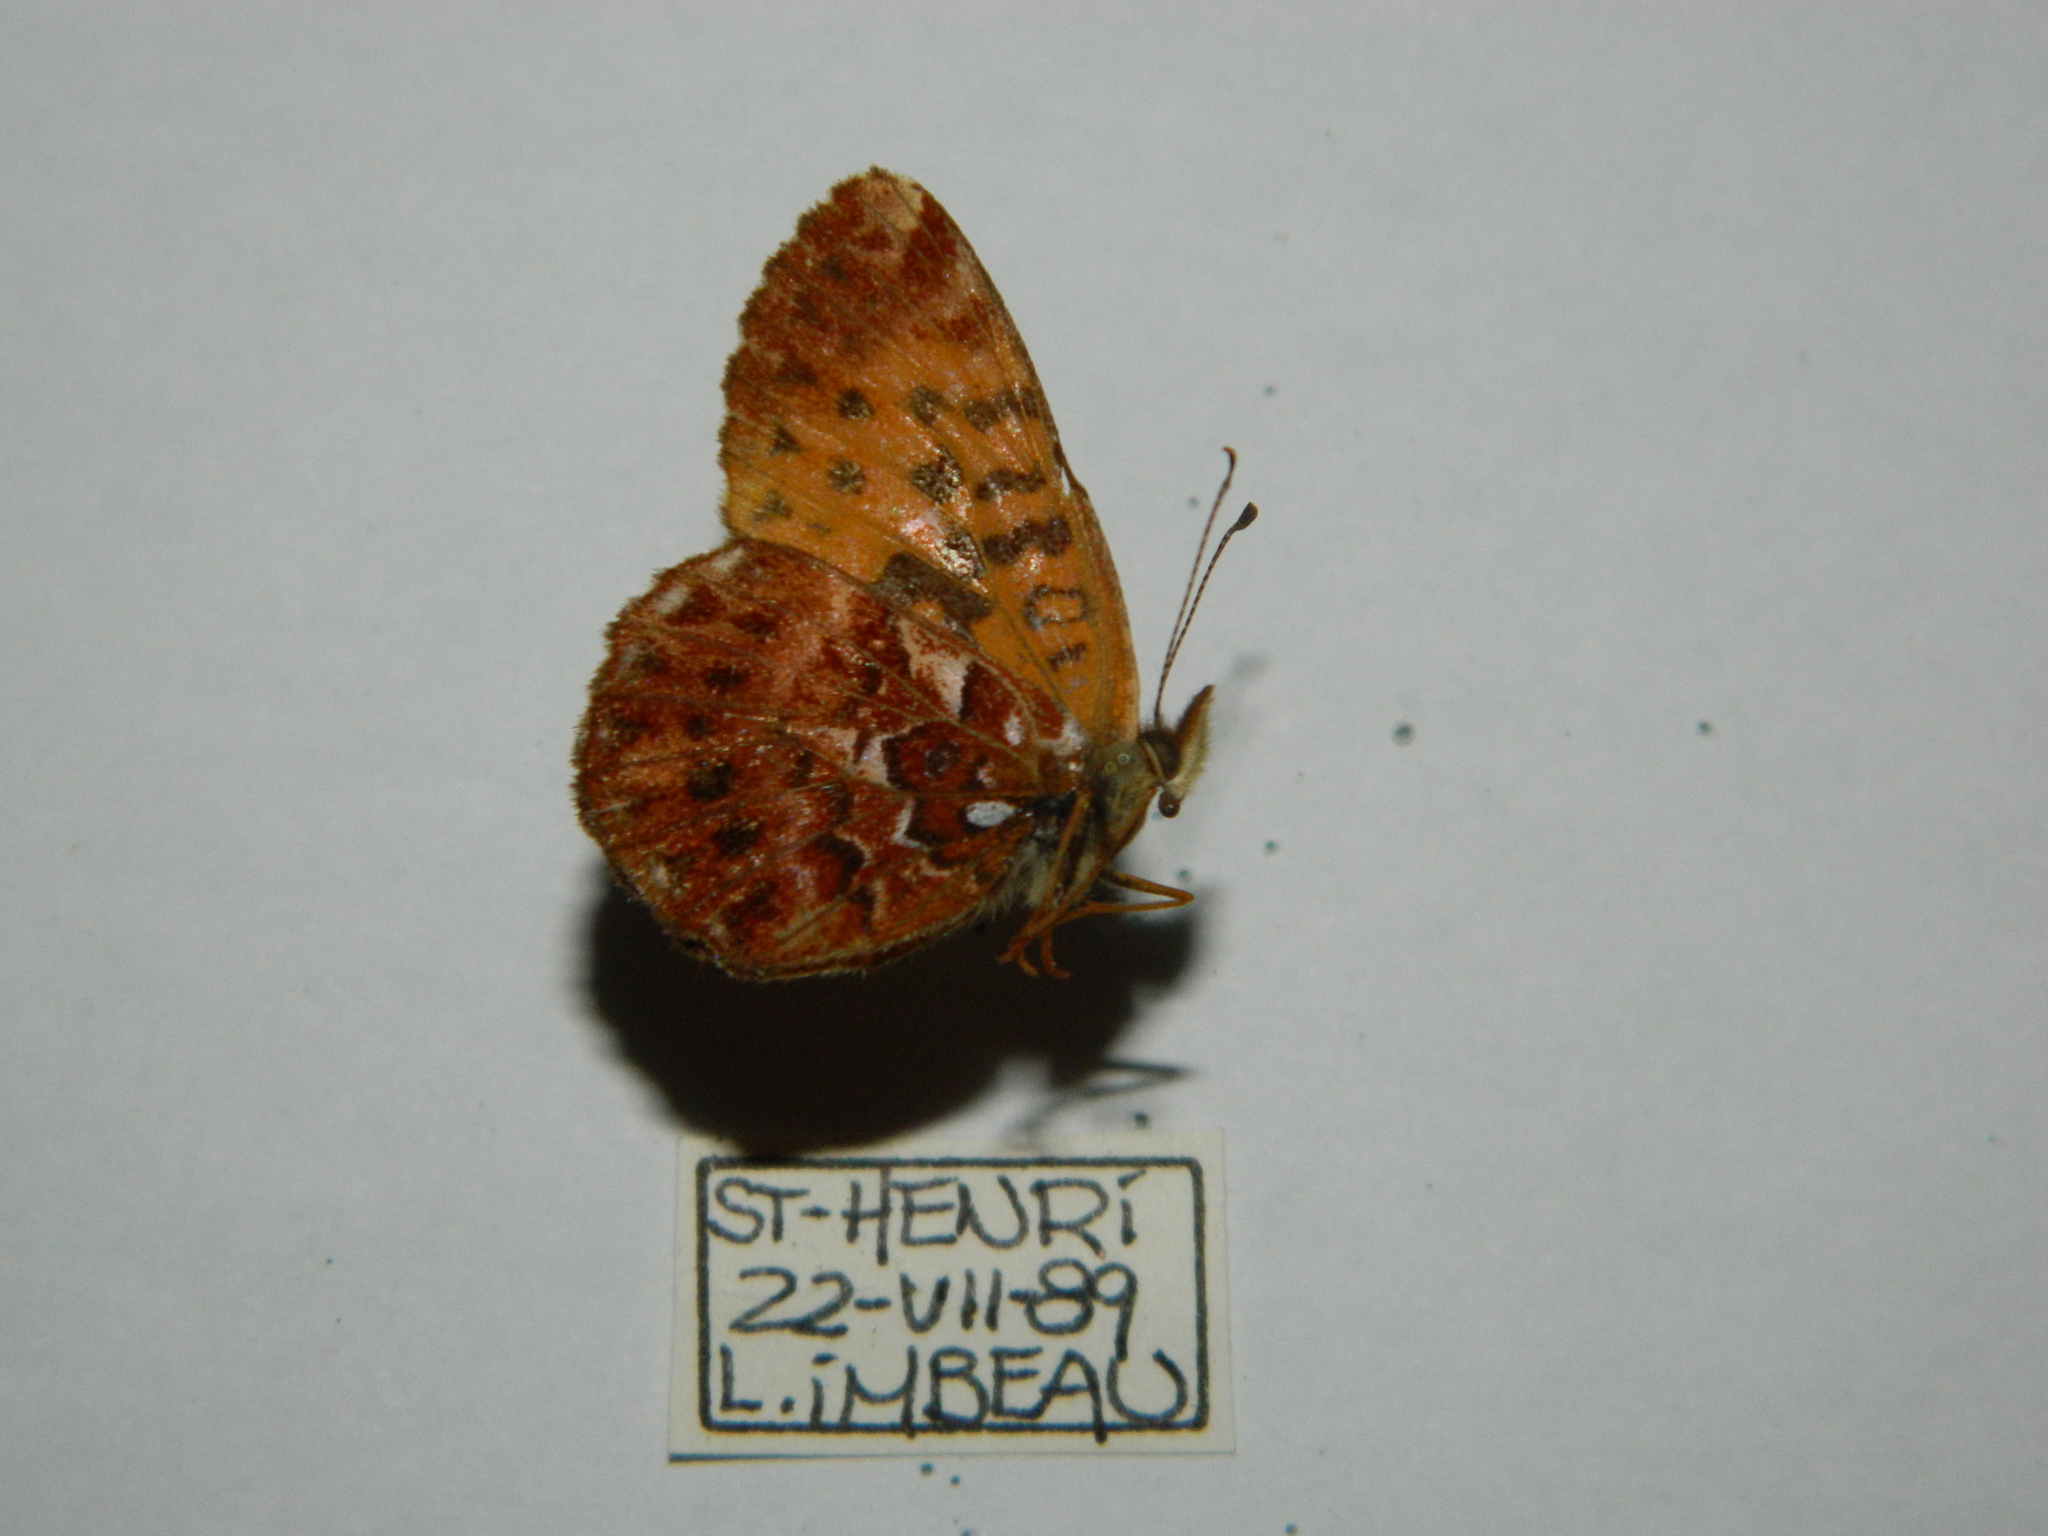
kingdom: Animalia
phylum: Arthropoda
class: Insecta
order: Lepidoptera
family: Nymphalidae
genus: Clossiana
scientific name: Clossiana chariclea
